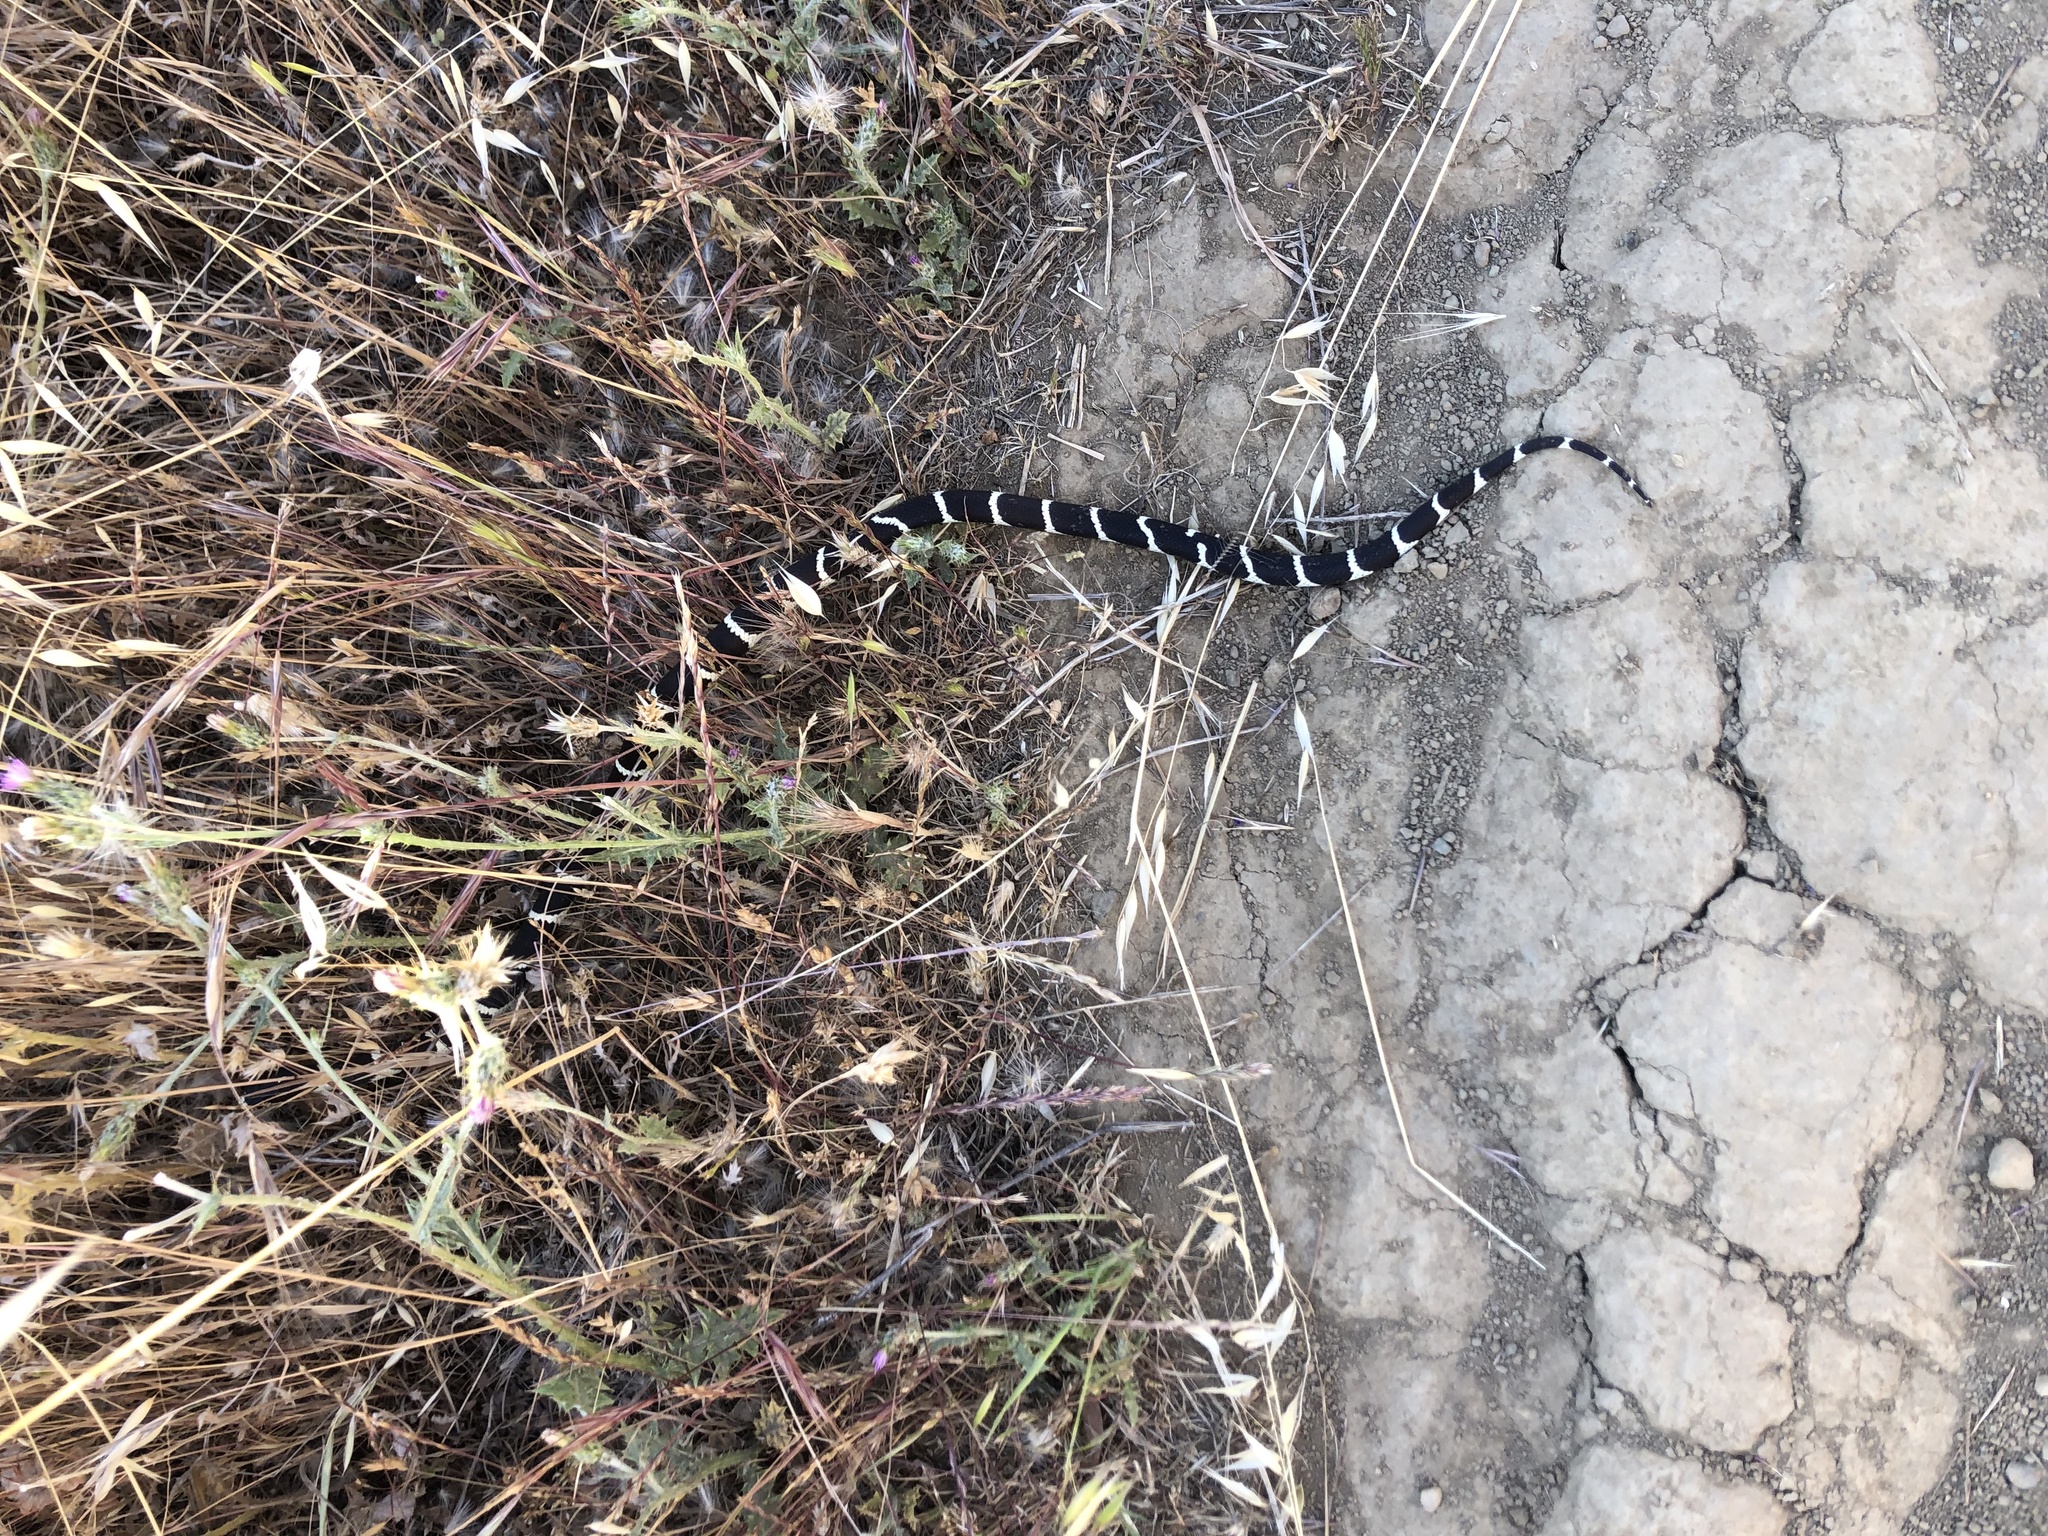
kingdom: Animalia
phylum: Chordata
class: Squamata
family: Colubridae
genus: Lampropeltis
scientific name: Lampropeltis californiae
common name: California kingsnake
